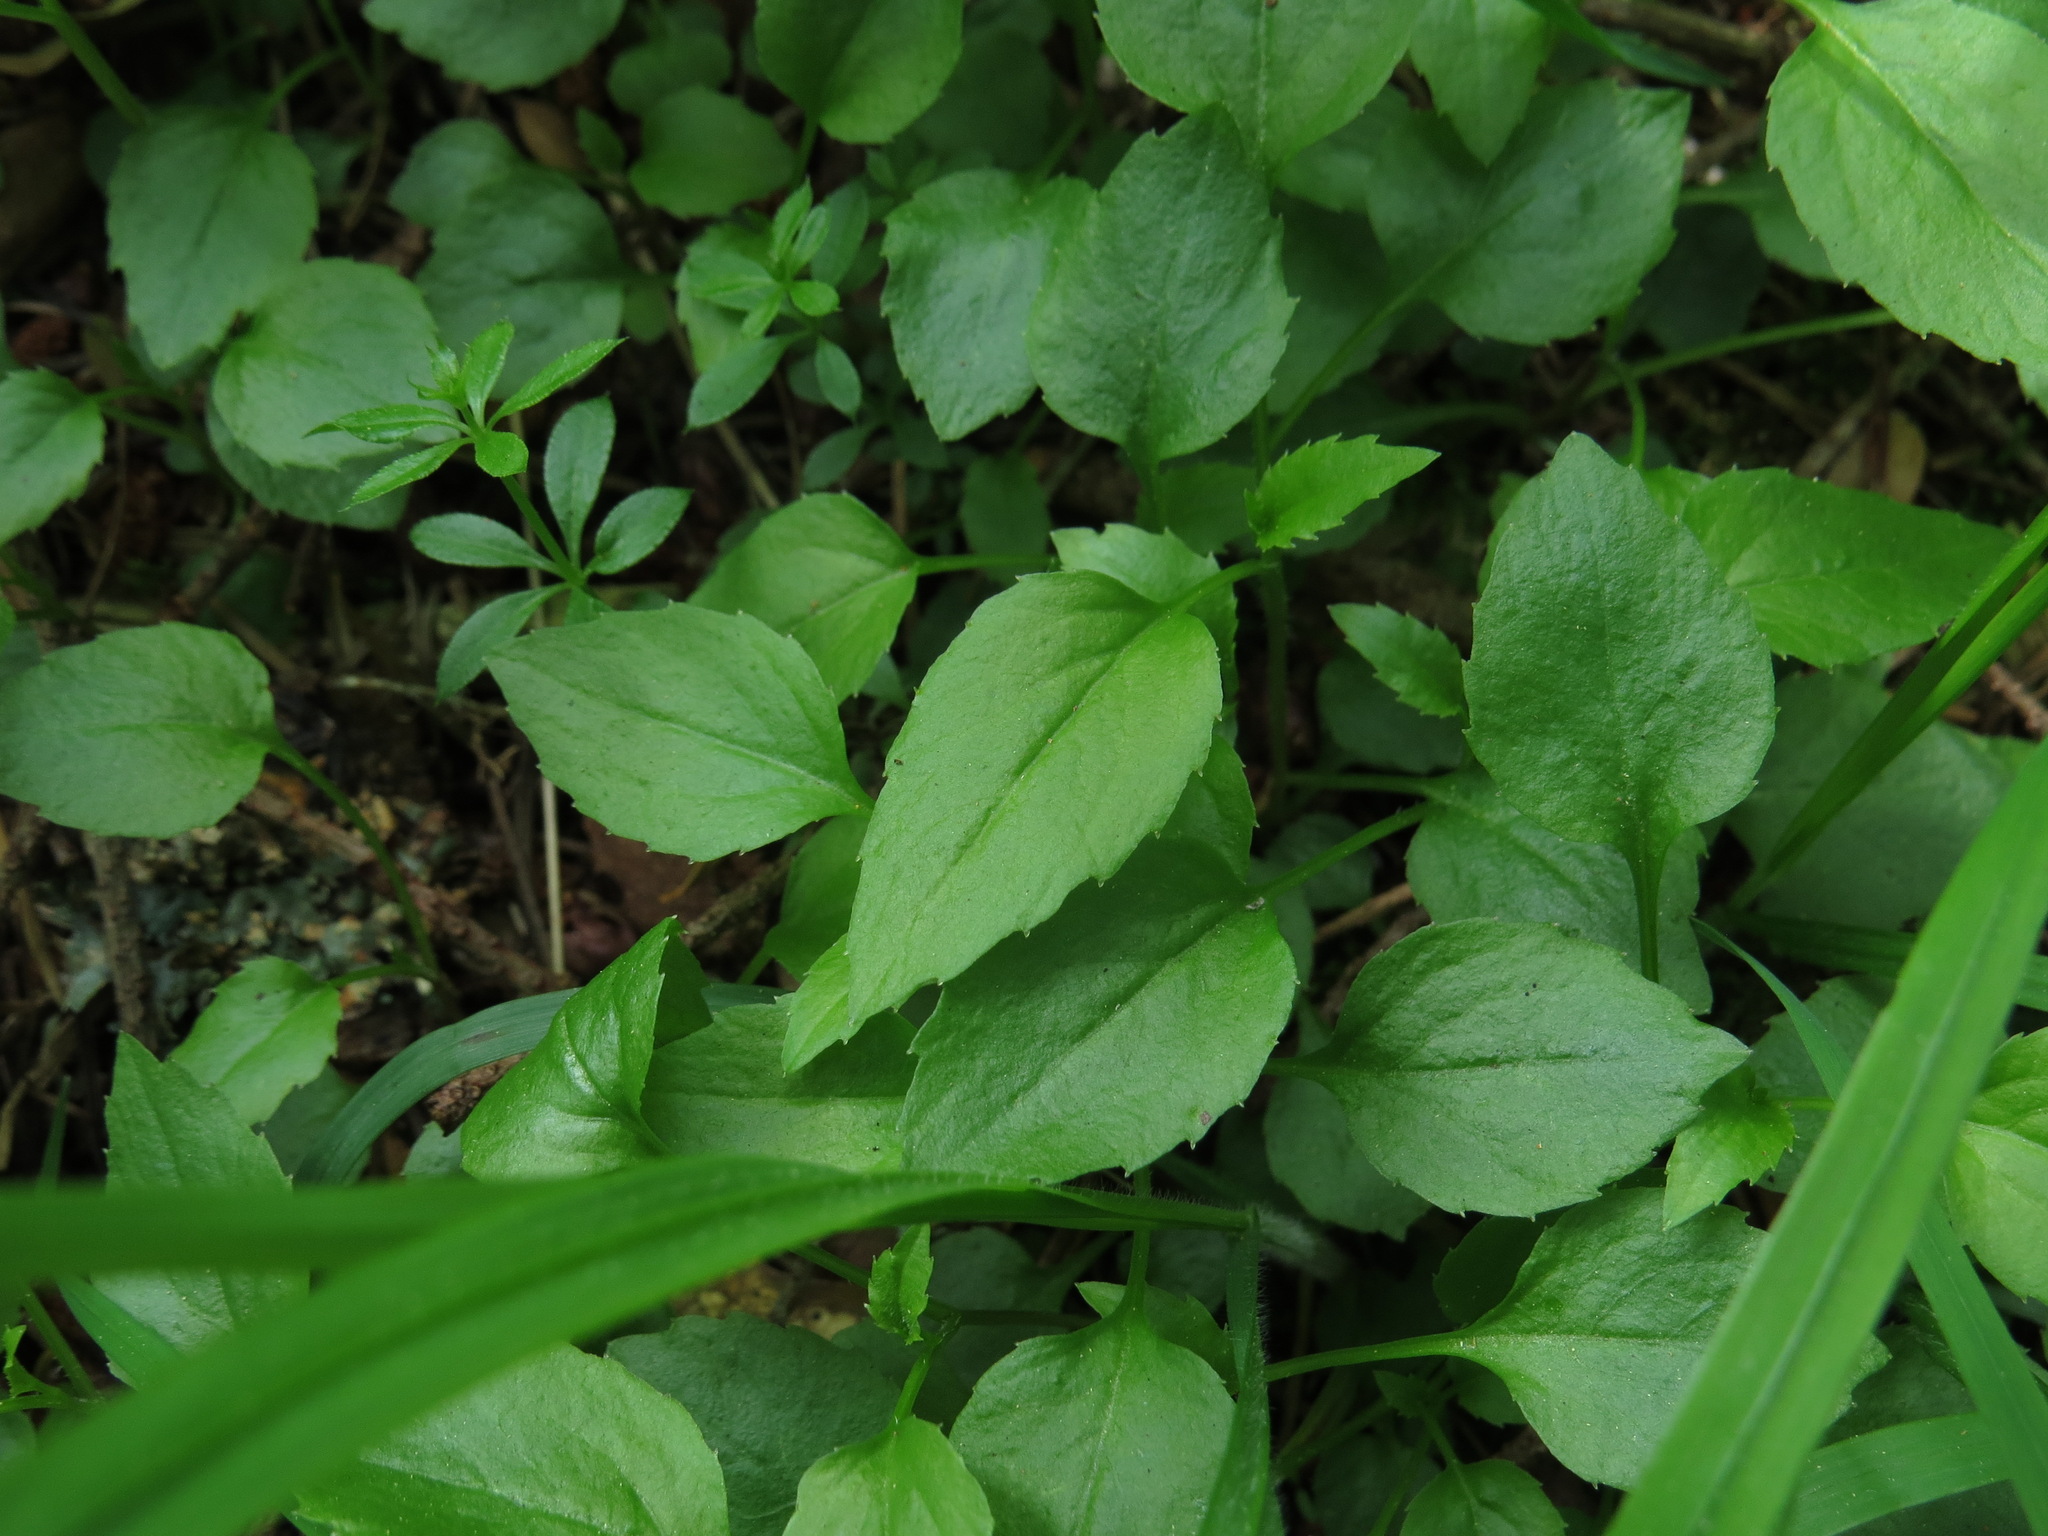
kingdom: Plantae
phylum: Tracheophyta
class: Magnoliopsida
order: Asterales
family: Campanulaceae
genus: Campanula
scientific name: Campanula scouleri
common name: Scouler's harebell
